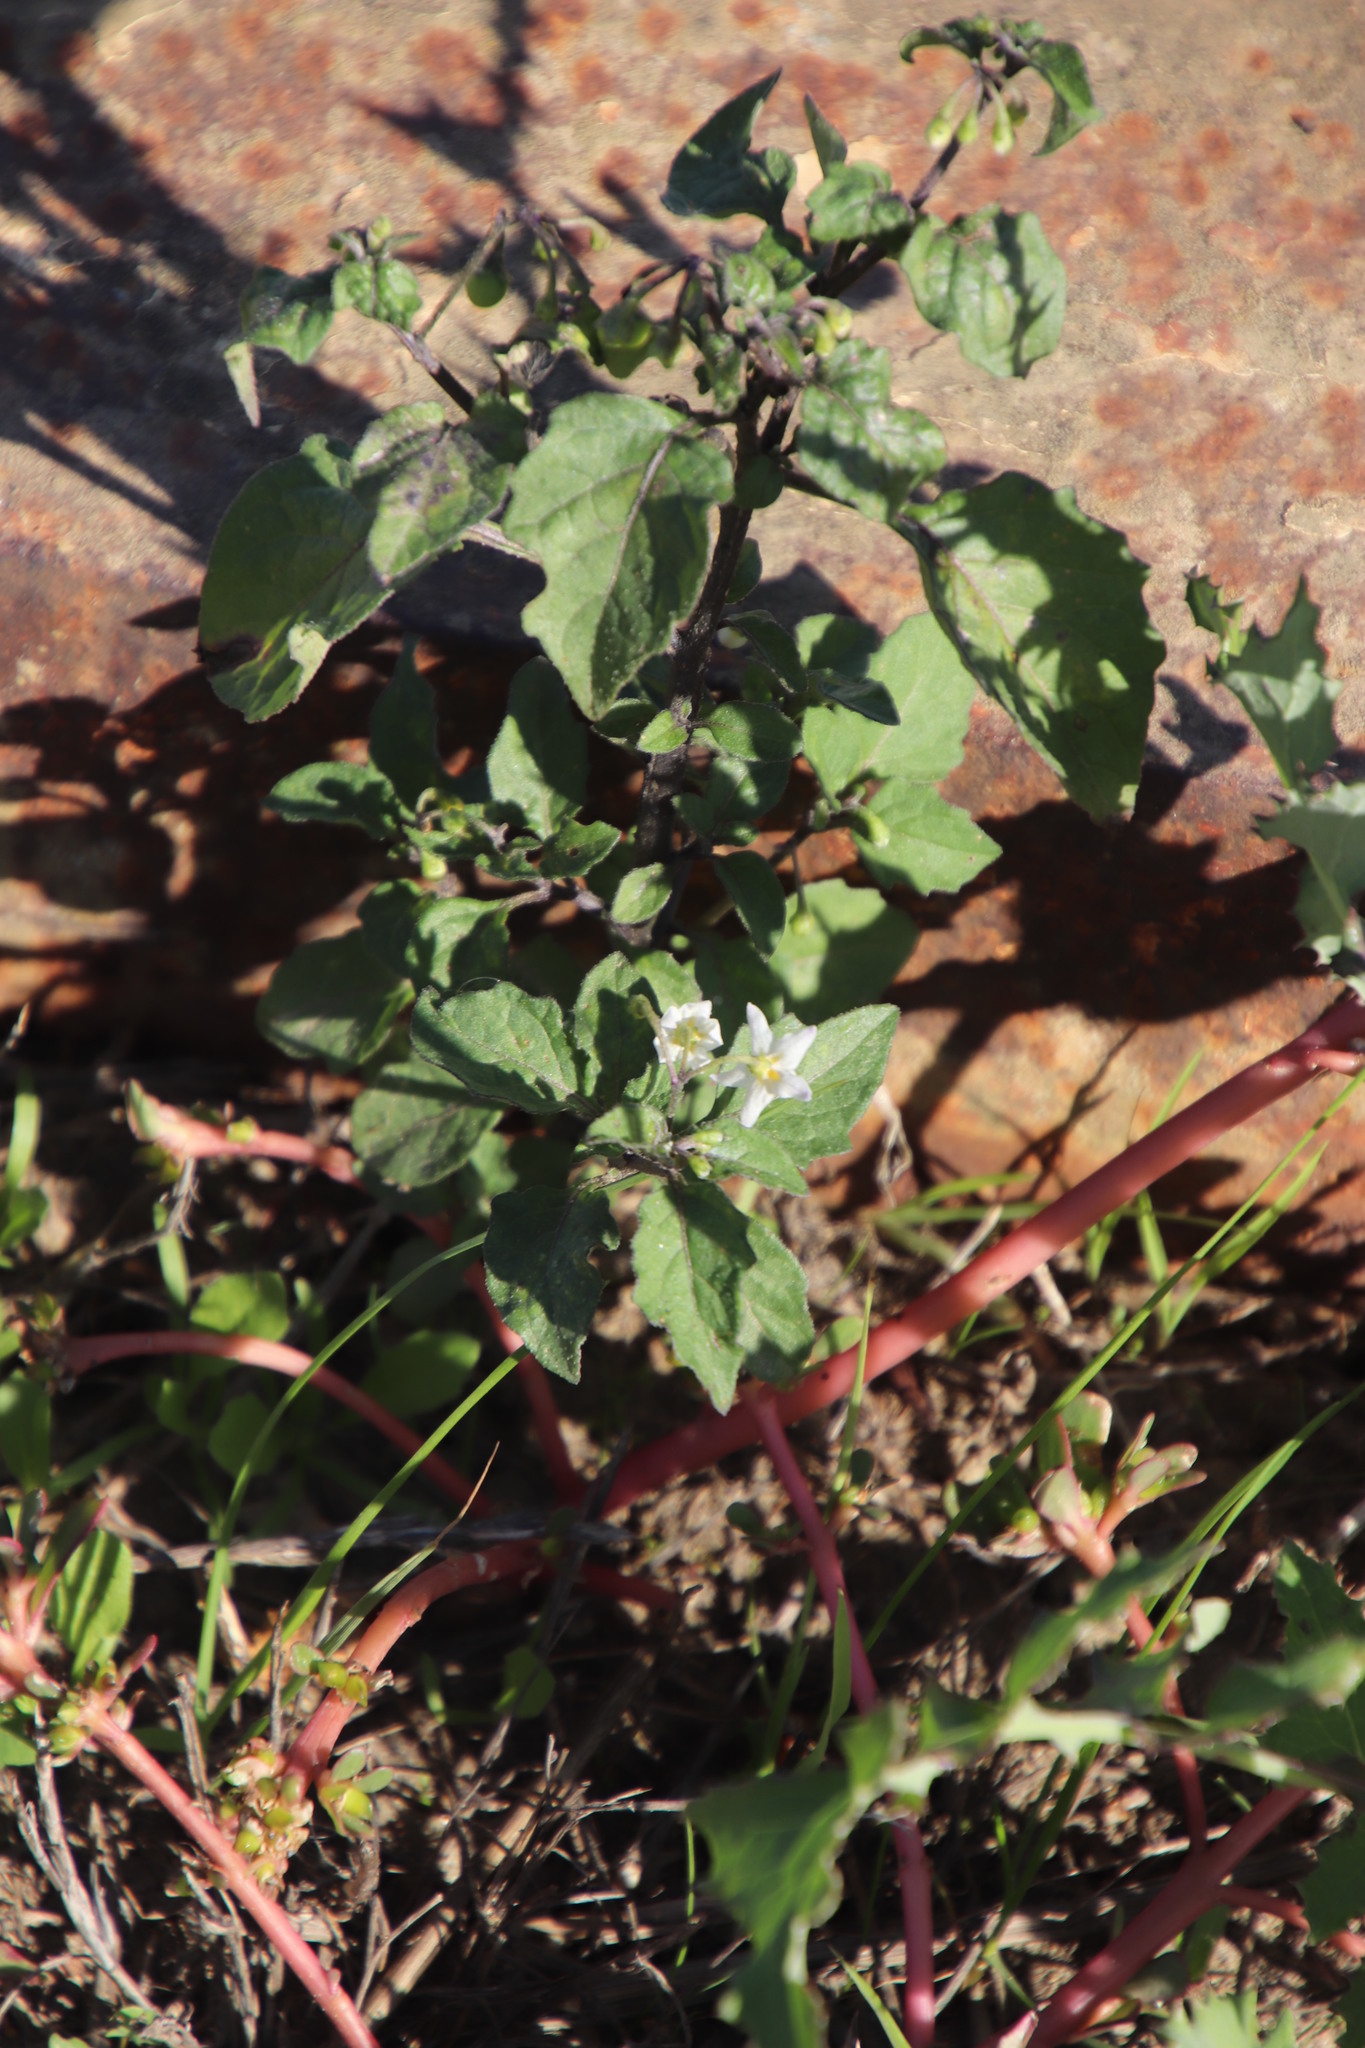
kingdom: Plantae
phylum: Tracheophyta
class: Magnoliopsida
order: Solanales
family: Solanaceae
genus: Solanum
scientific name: Solanum nigrum
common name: Black nightshade
